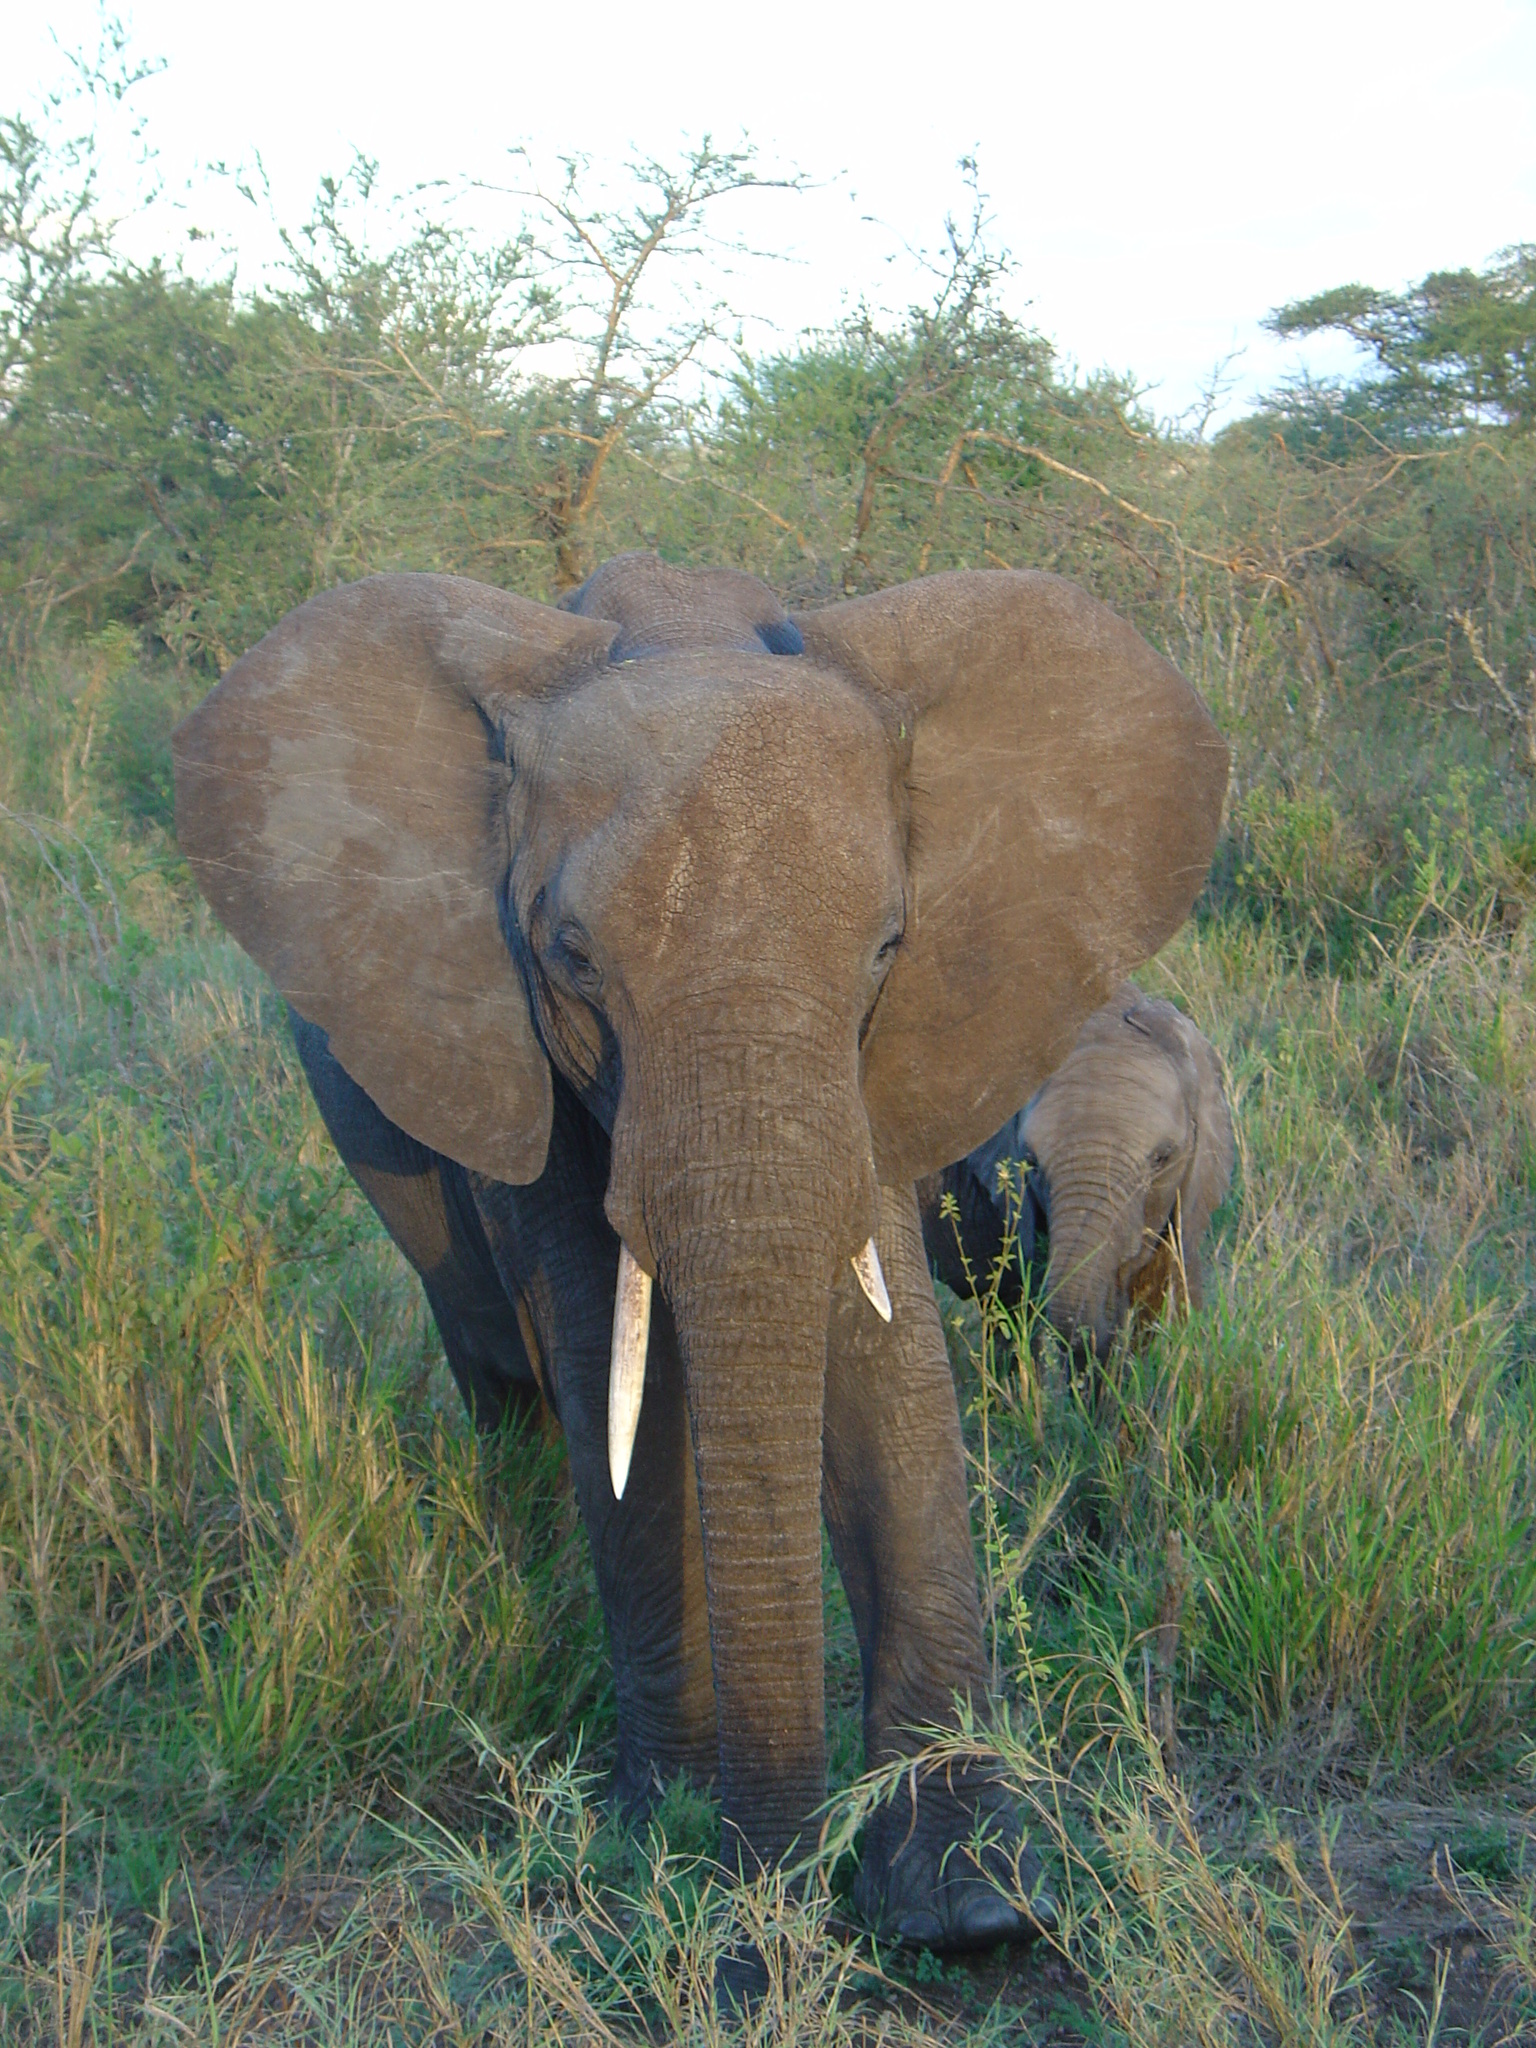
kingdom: Animalia
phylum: Chordata
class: Mammalia
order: Proboscidea
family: Elephantidae
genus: Loxodonta
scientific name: Loxodonta africana
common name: African elephant
